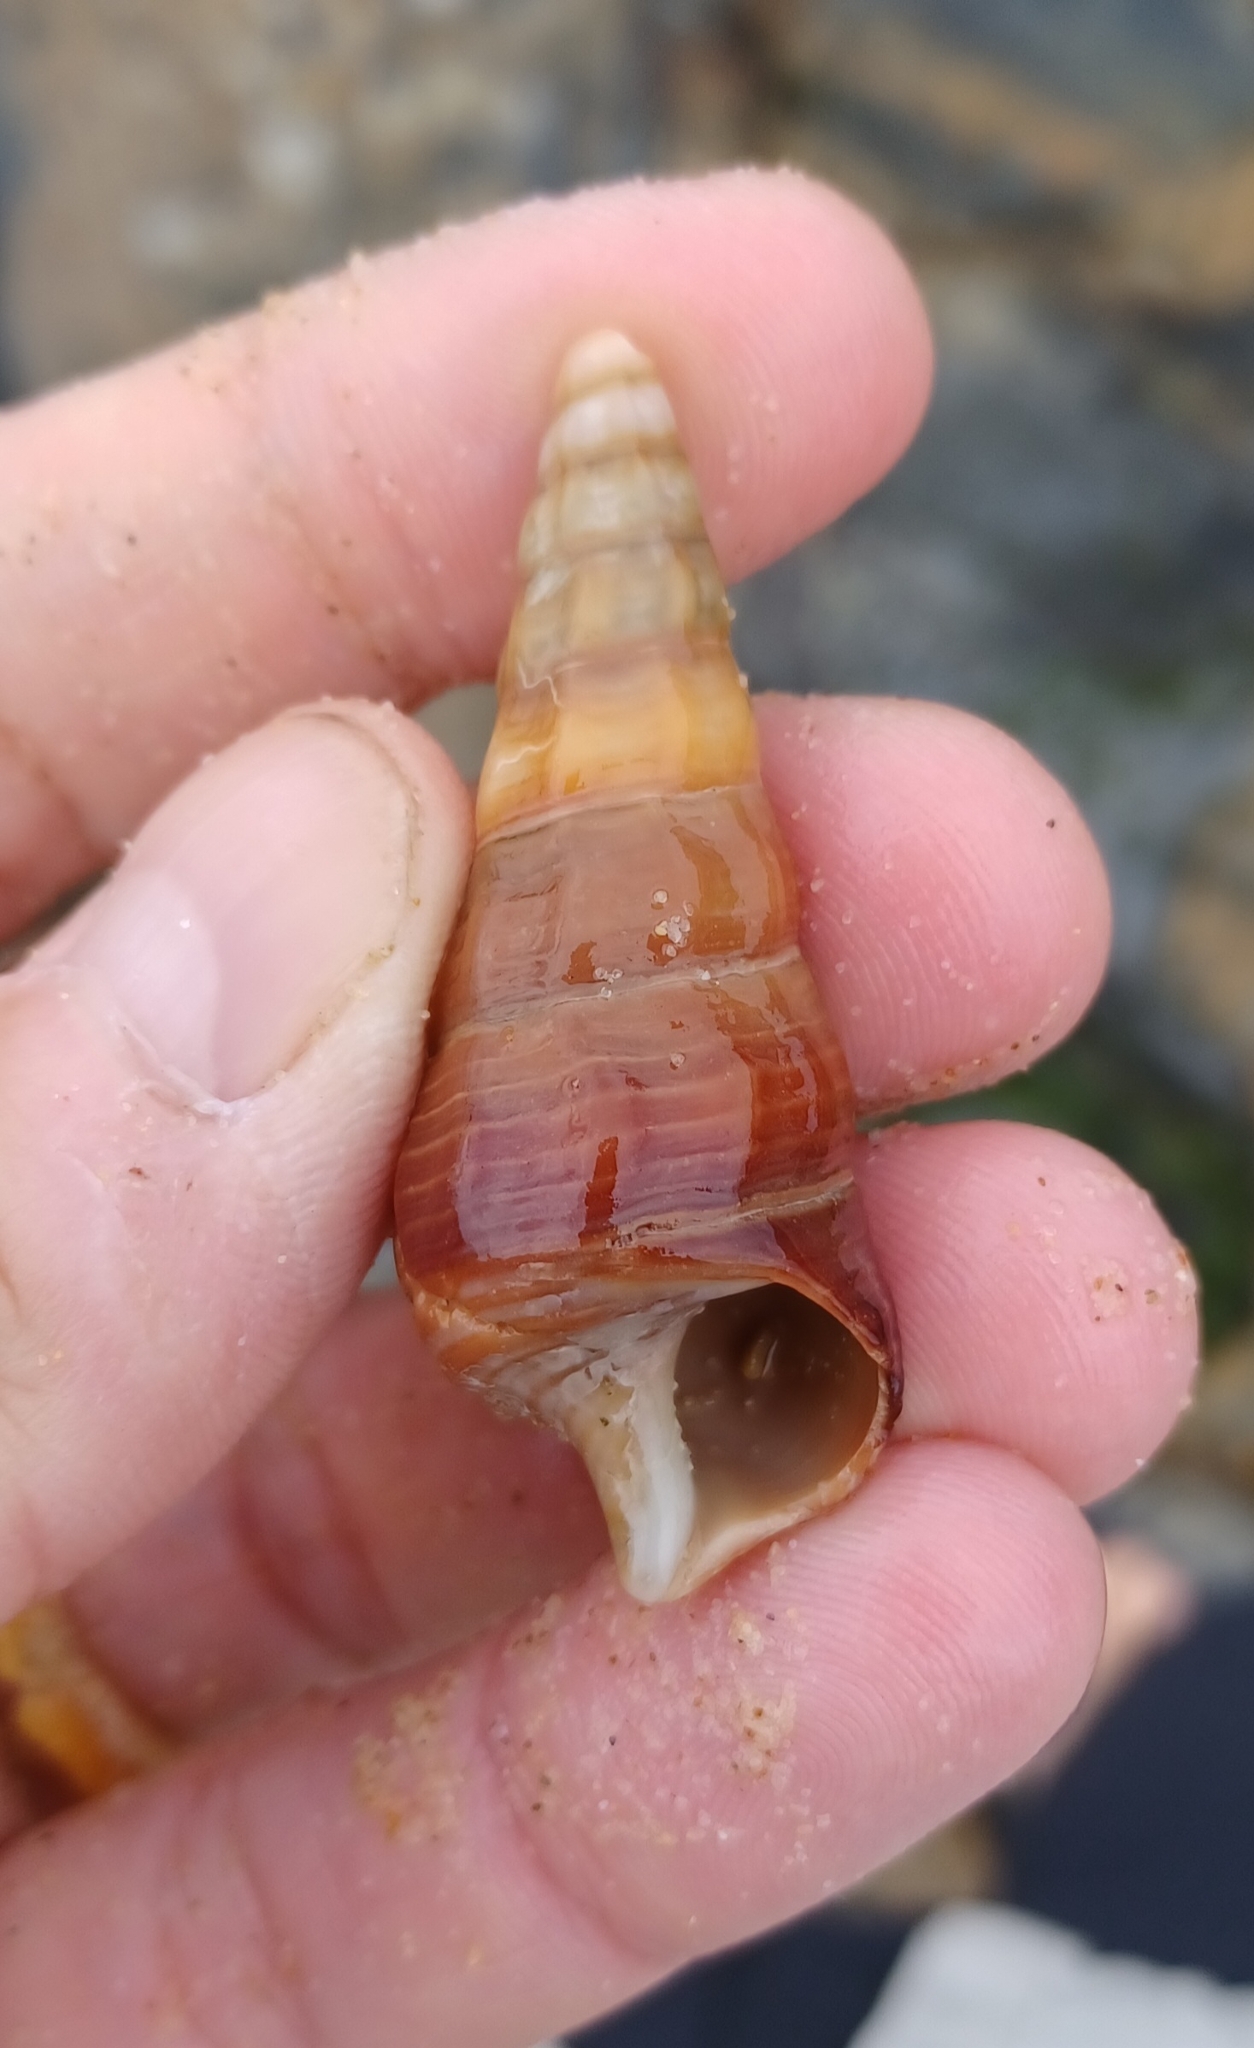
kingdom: Animalia
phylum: Mollusca
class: Gastropoda
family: Batillariidae
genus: Pyrazus
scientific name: Pyrazus ebeninus
